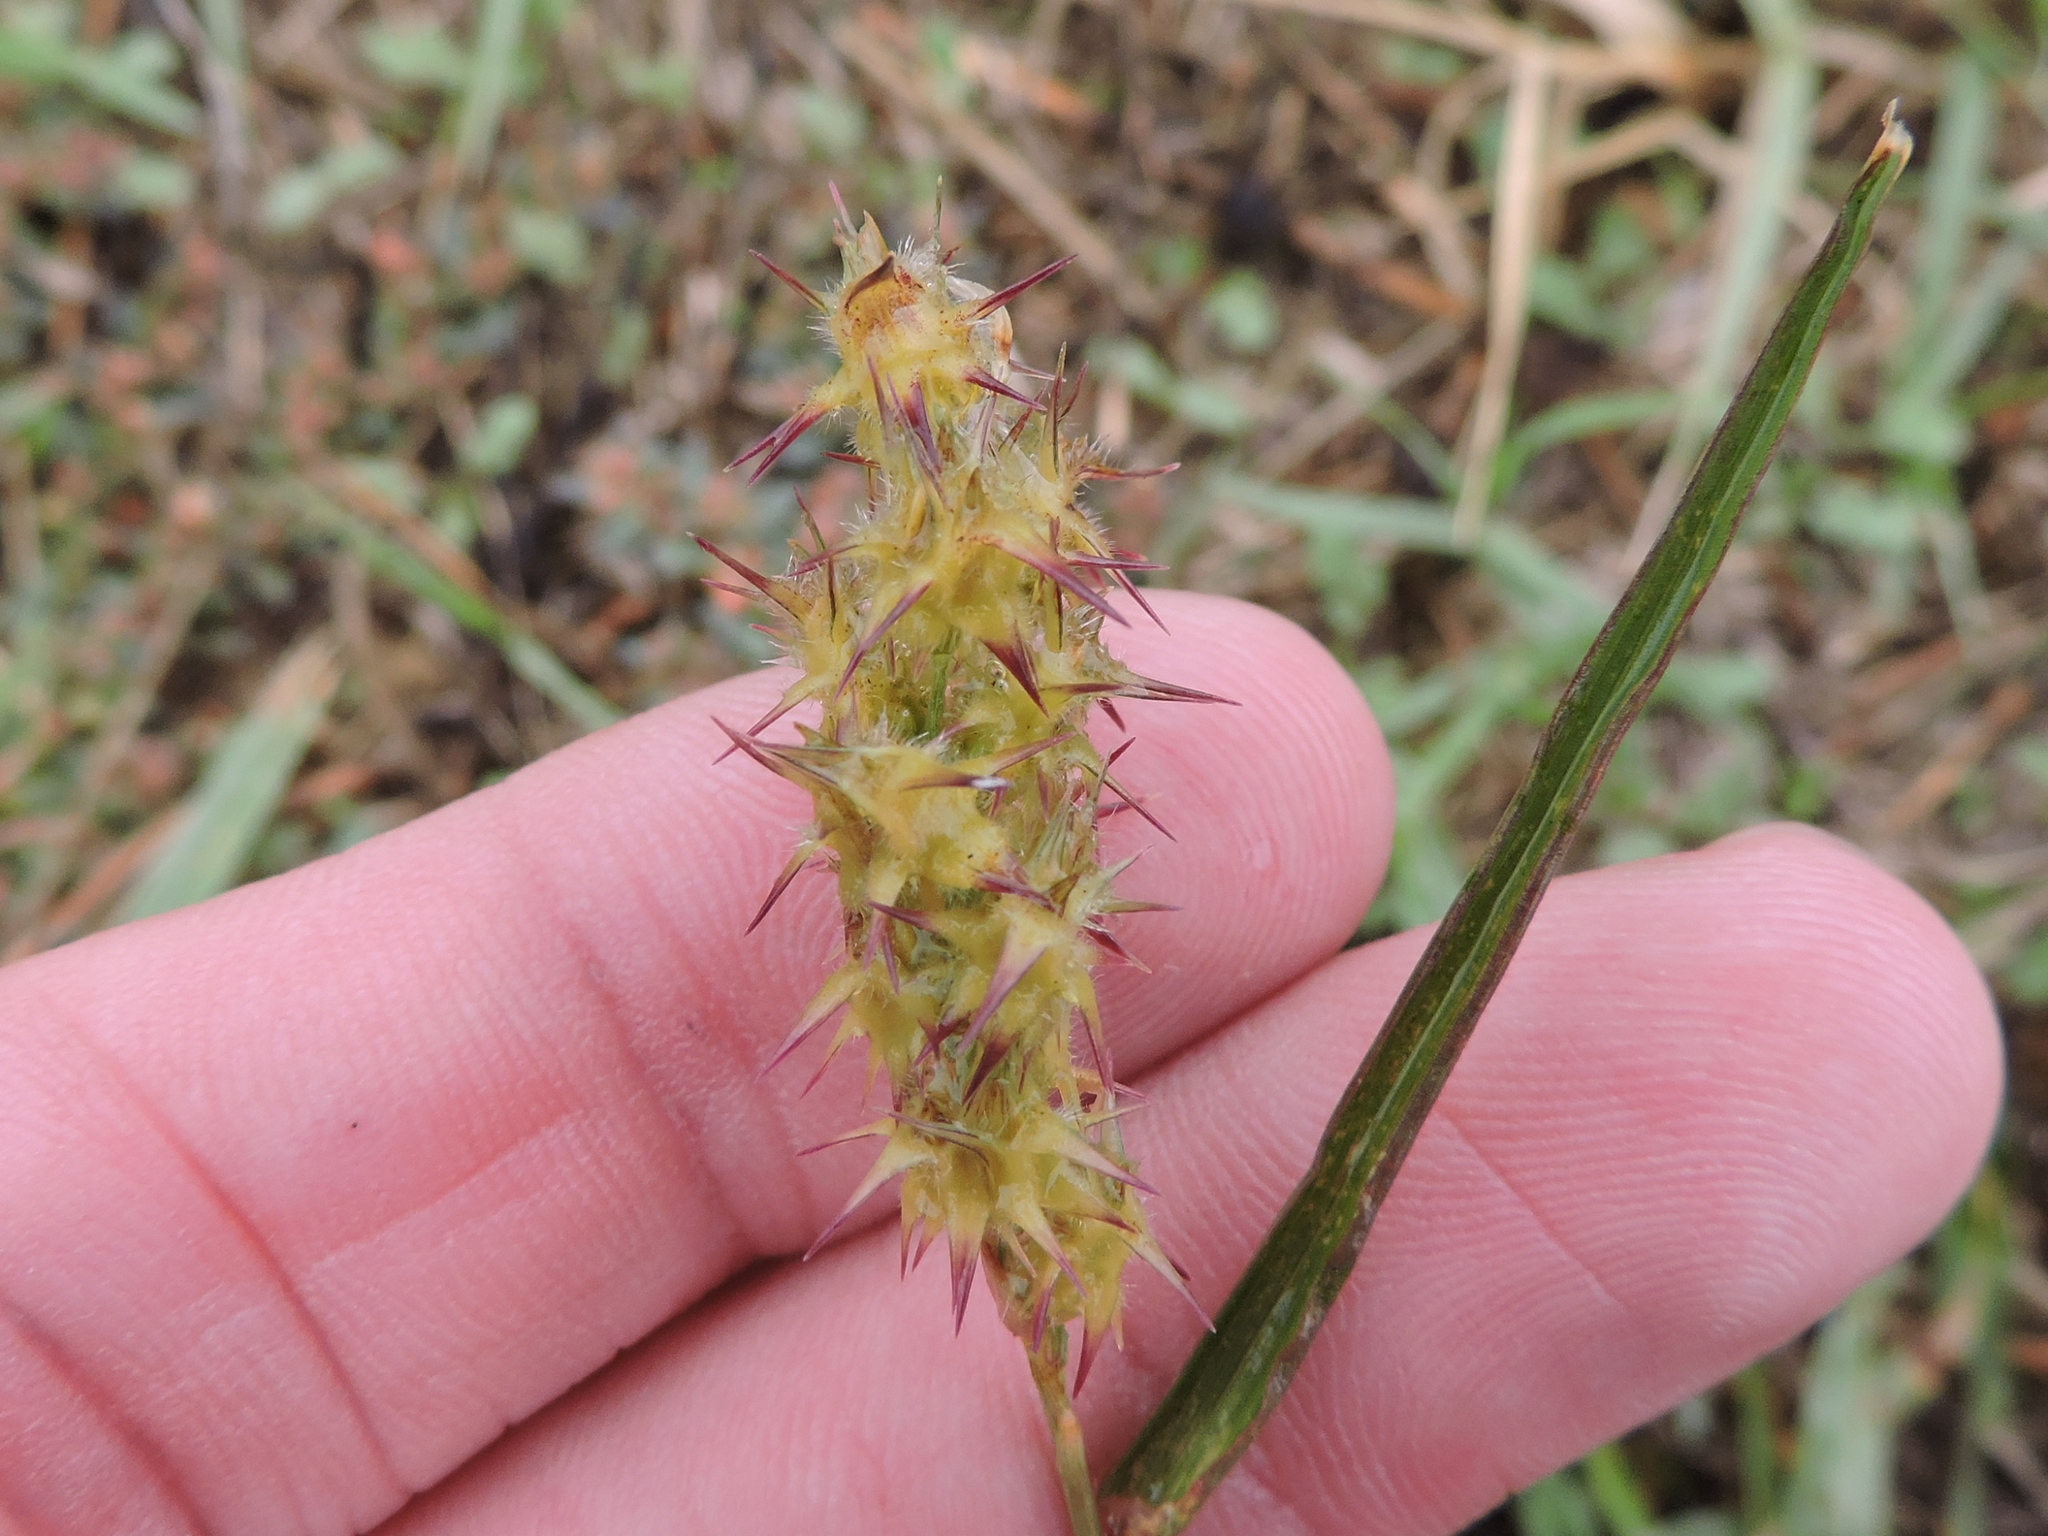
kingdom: Plantae
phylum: Tracheophyta
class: Liliopsida
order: Poales
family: Poaceae
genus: Cenchrus
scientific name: Cenchrus spinifex
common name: Coast sandbur
